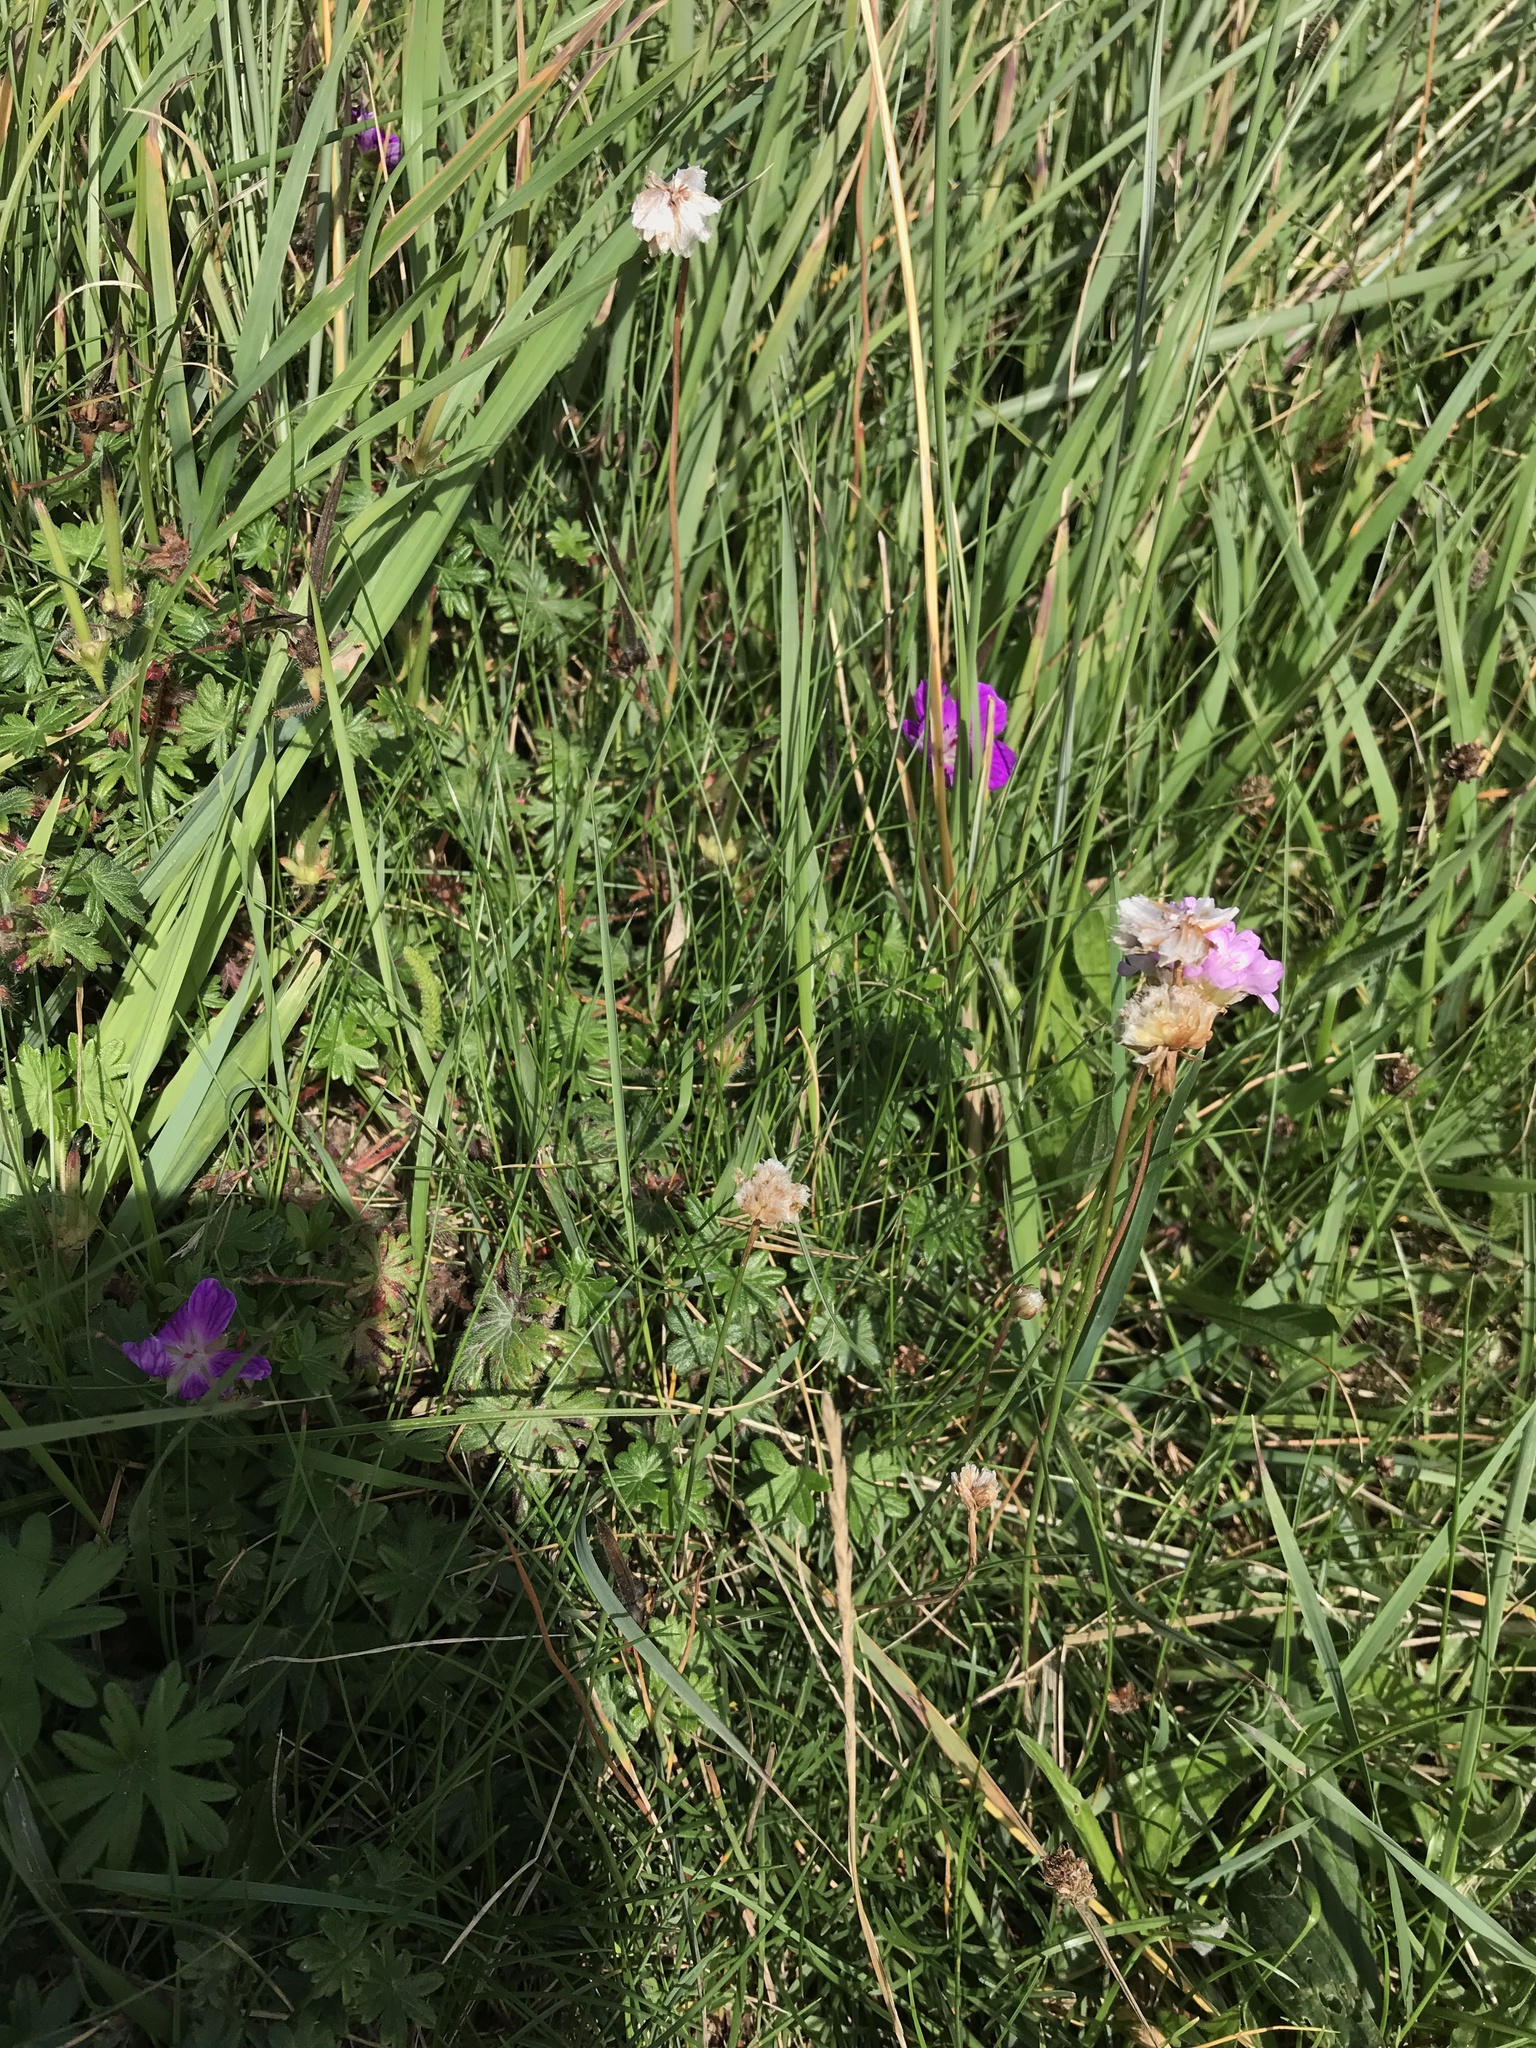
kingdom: Plantae
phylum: Tracheophyta
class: Magnoliopsida
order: Caryophyllales
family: Plumbaginaceae
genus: Armeria
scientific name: Armeria maritima
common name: Thrift
